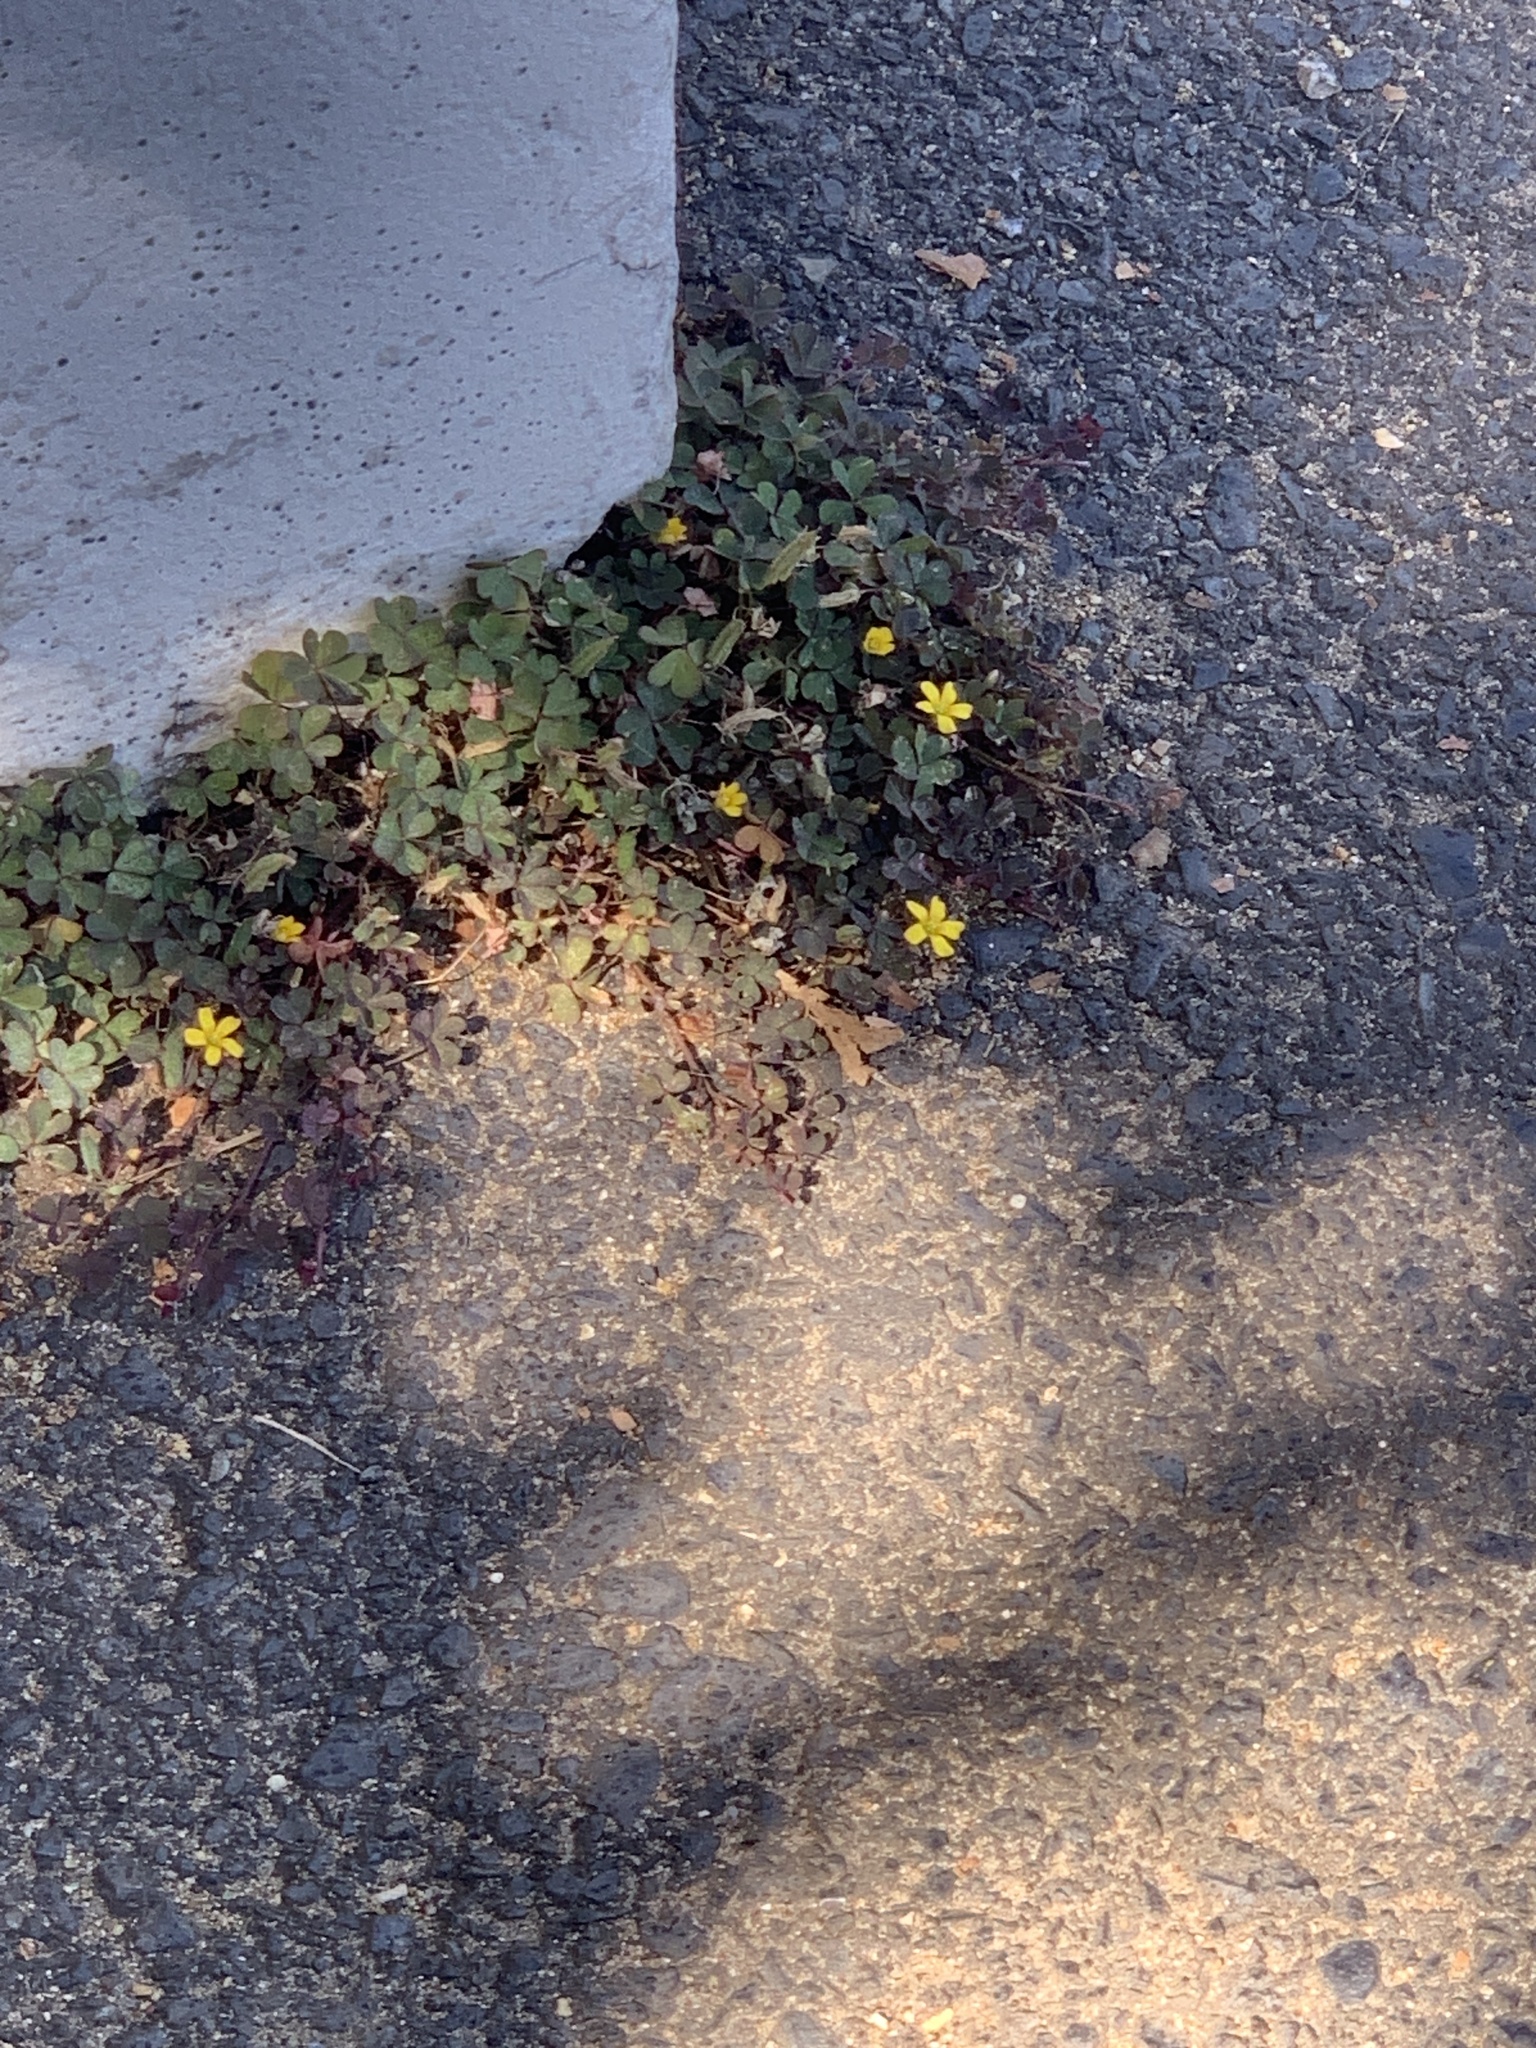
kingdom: Plantae
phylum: Tracheophyta
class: Magnoliopsida
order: Oxalidales
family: Oxalidaceae
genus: Oxalis
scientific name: Oxalis corniculata
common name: Procumbent yellow-sorrel
